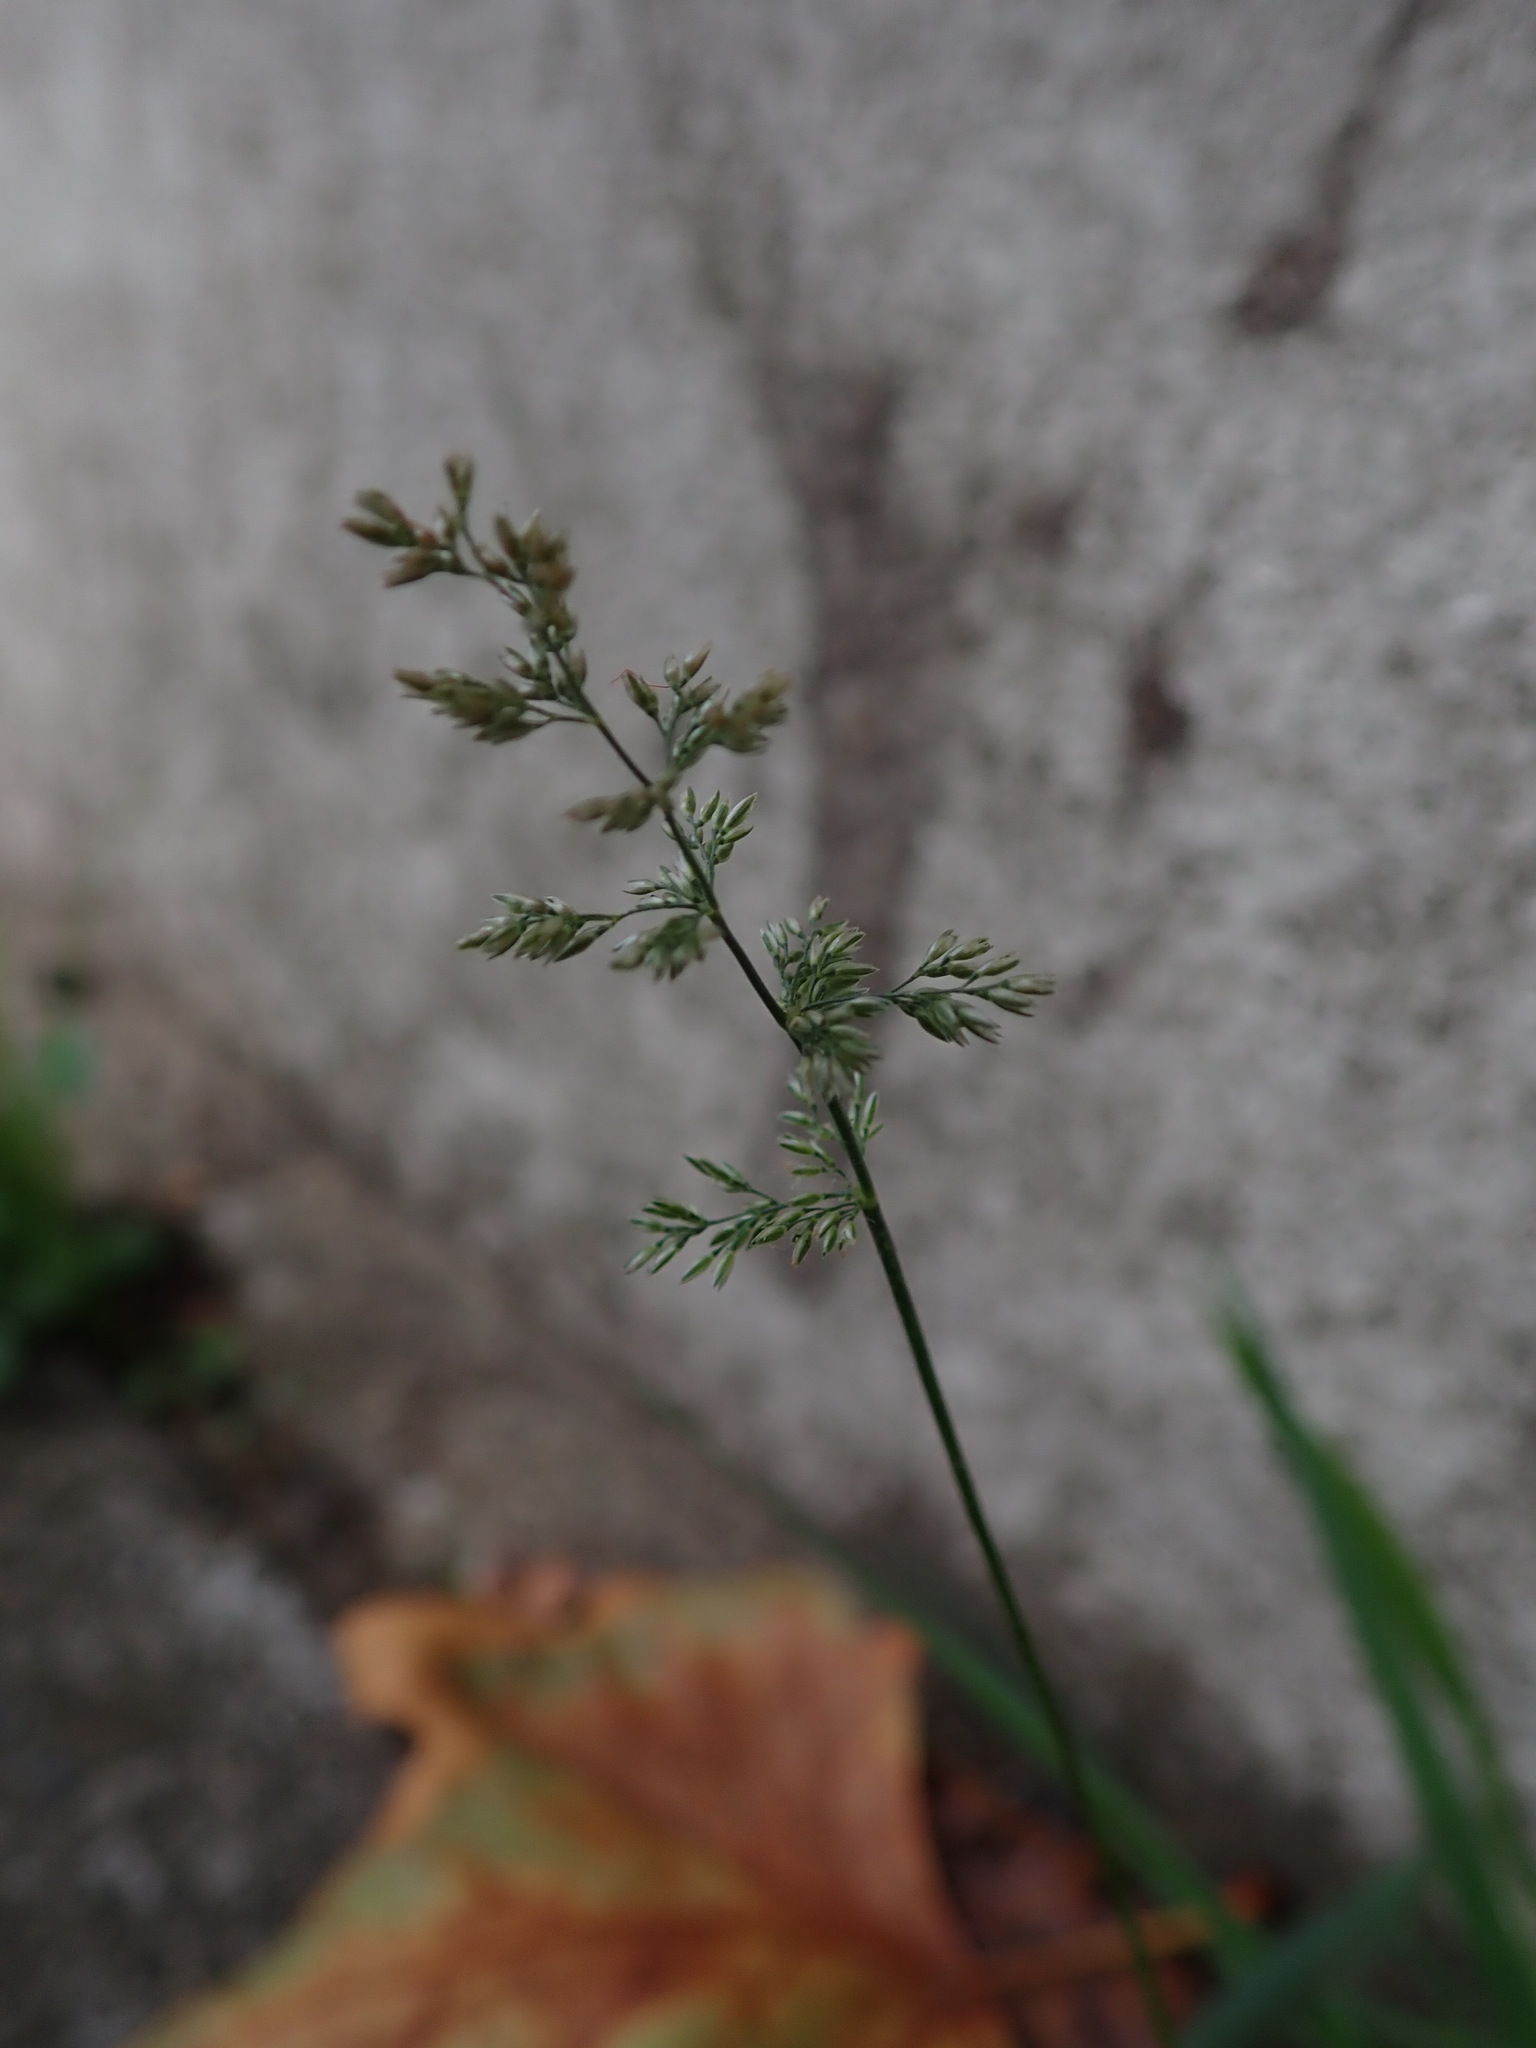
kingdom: Plantae
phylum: Tracheophyta
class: Liliopsida
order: Poales
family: Poaceae
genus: Polypogon
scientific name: Polypogon viridis
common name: Water bent
